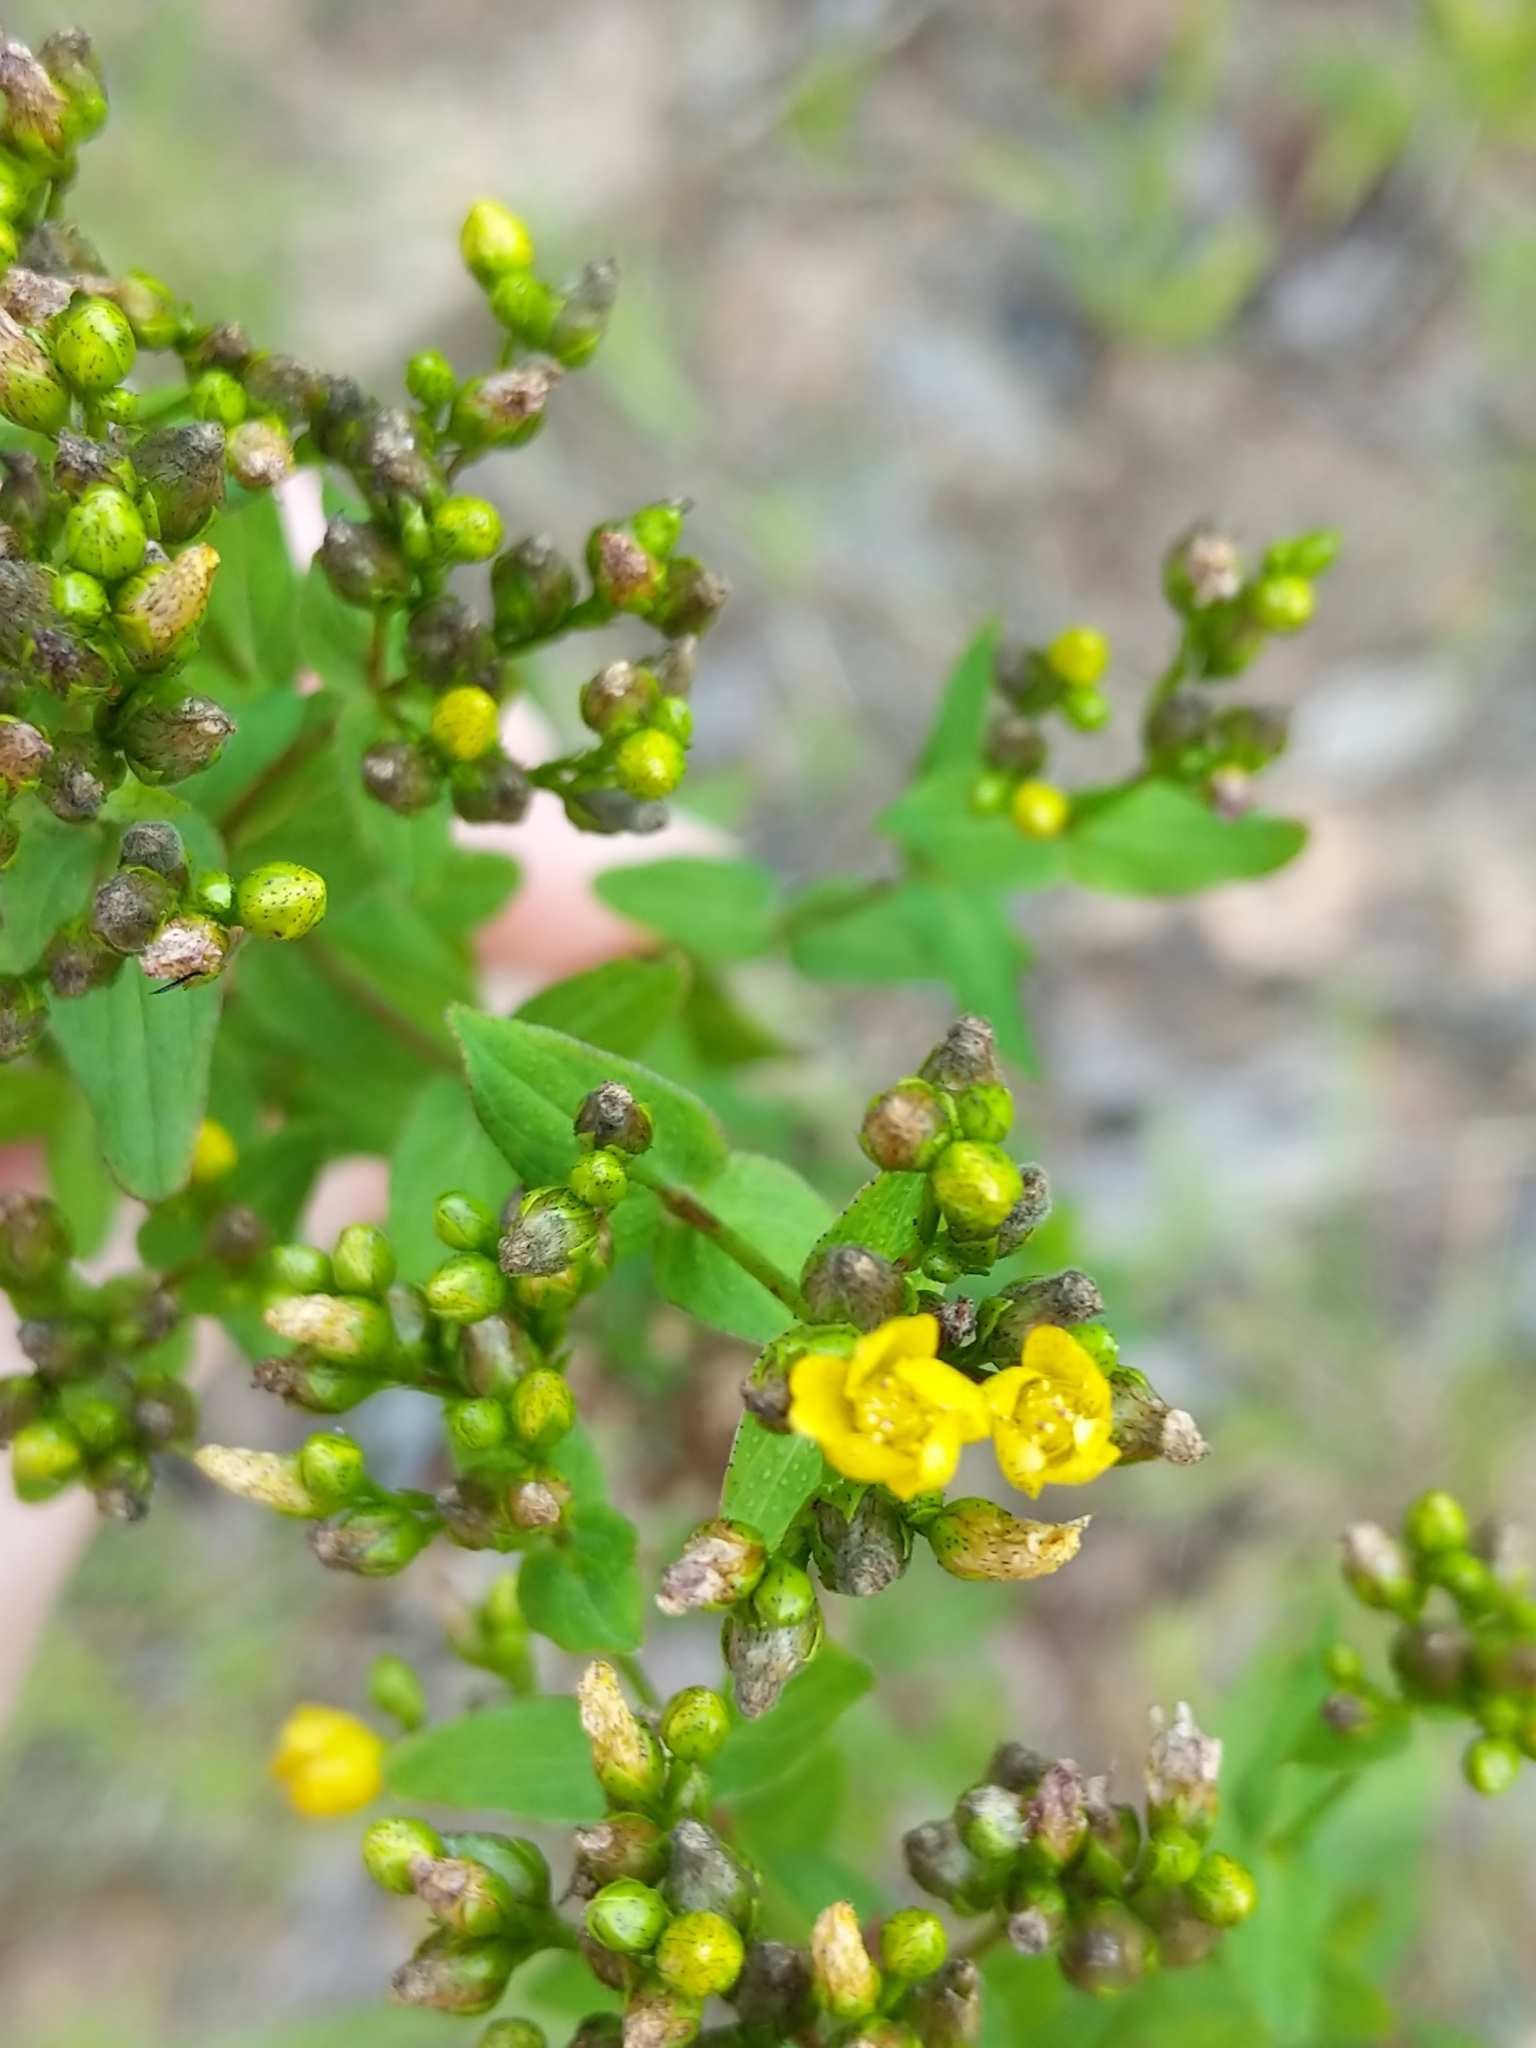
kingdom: Plantae
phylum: Tracheophyta
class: Magnoliopsida
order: Malpighiales
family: Hypericaceae
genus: Hypericum
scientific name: Hypericum punctatum
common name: Spotted st. john's-wort
